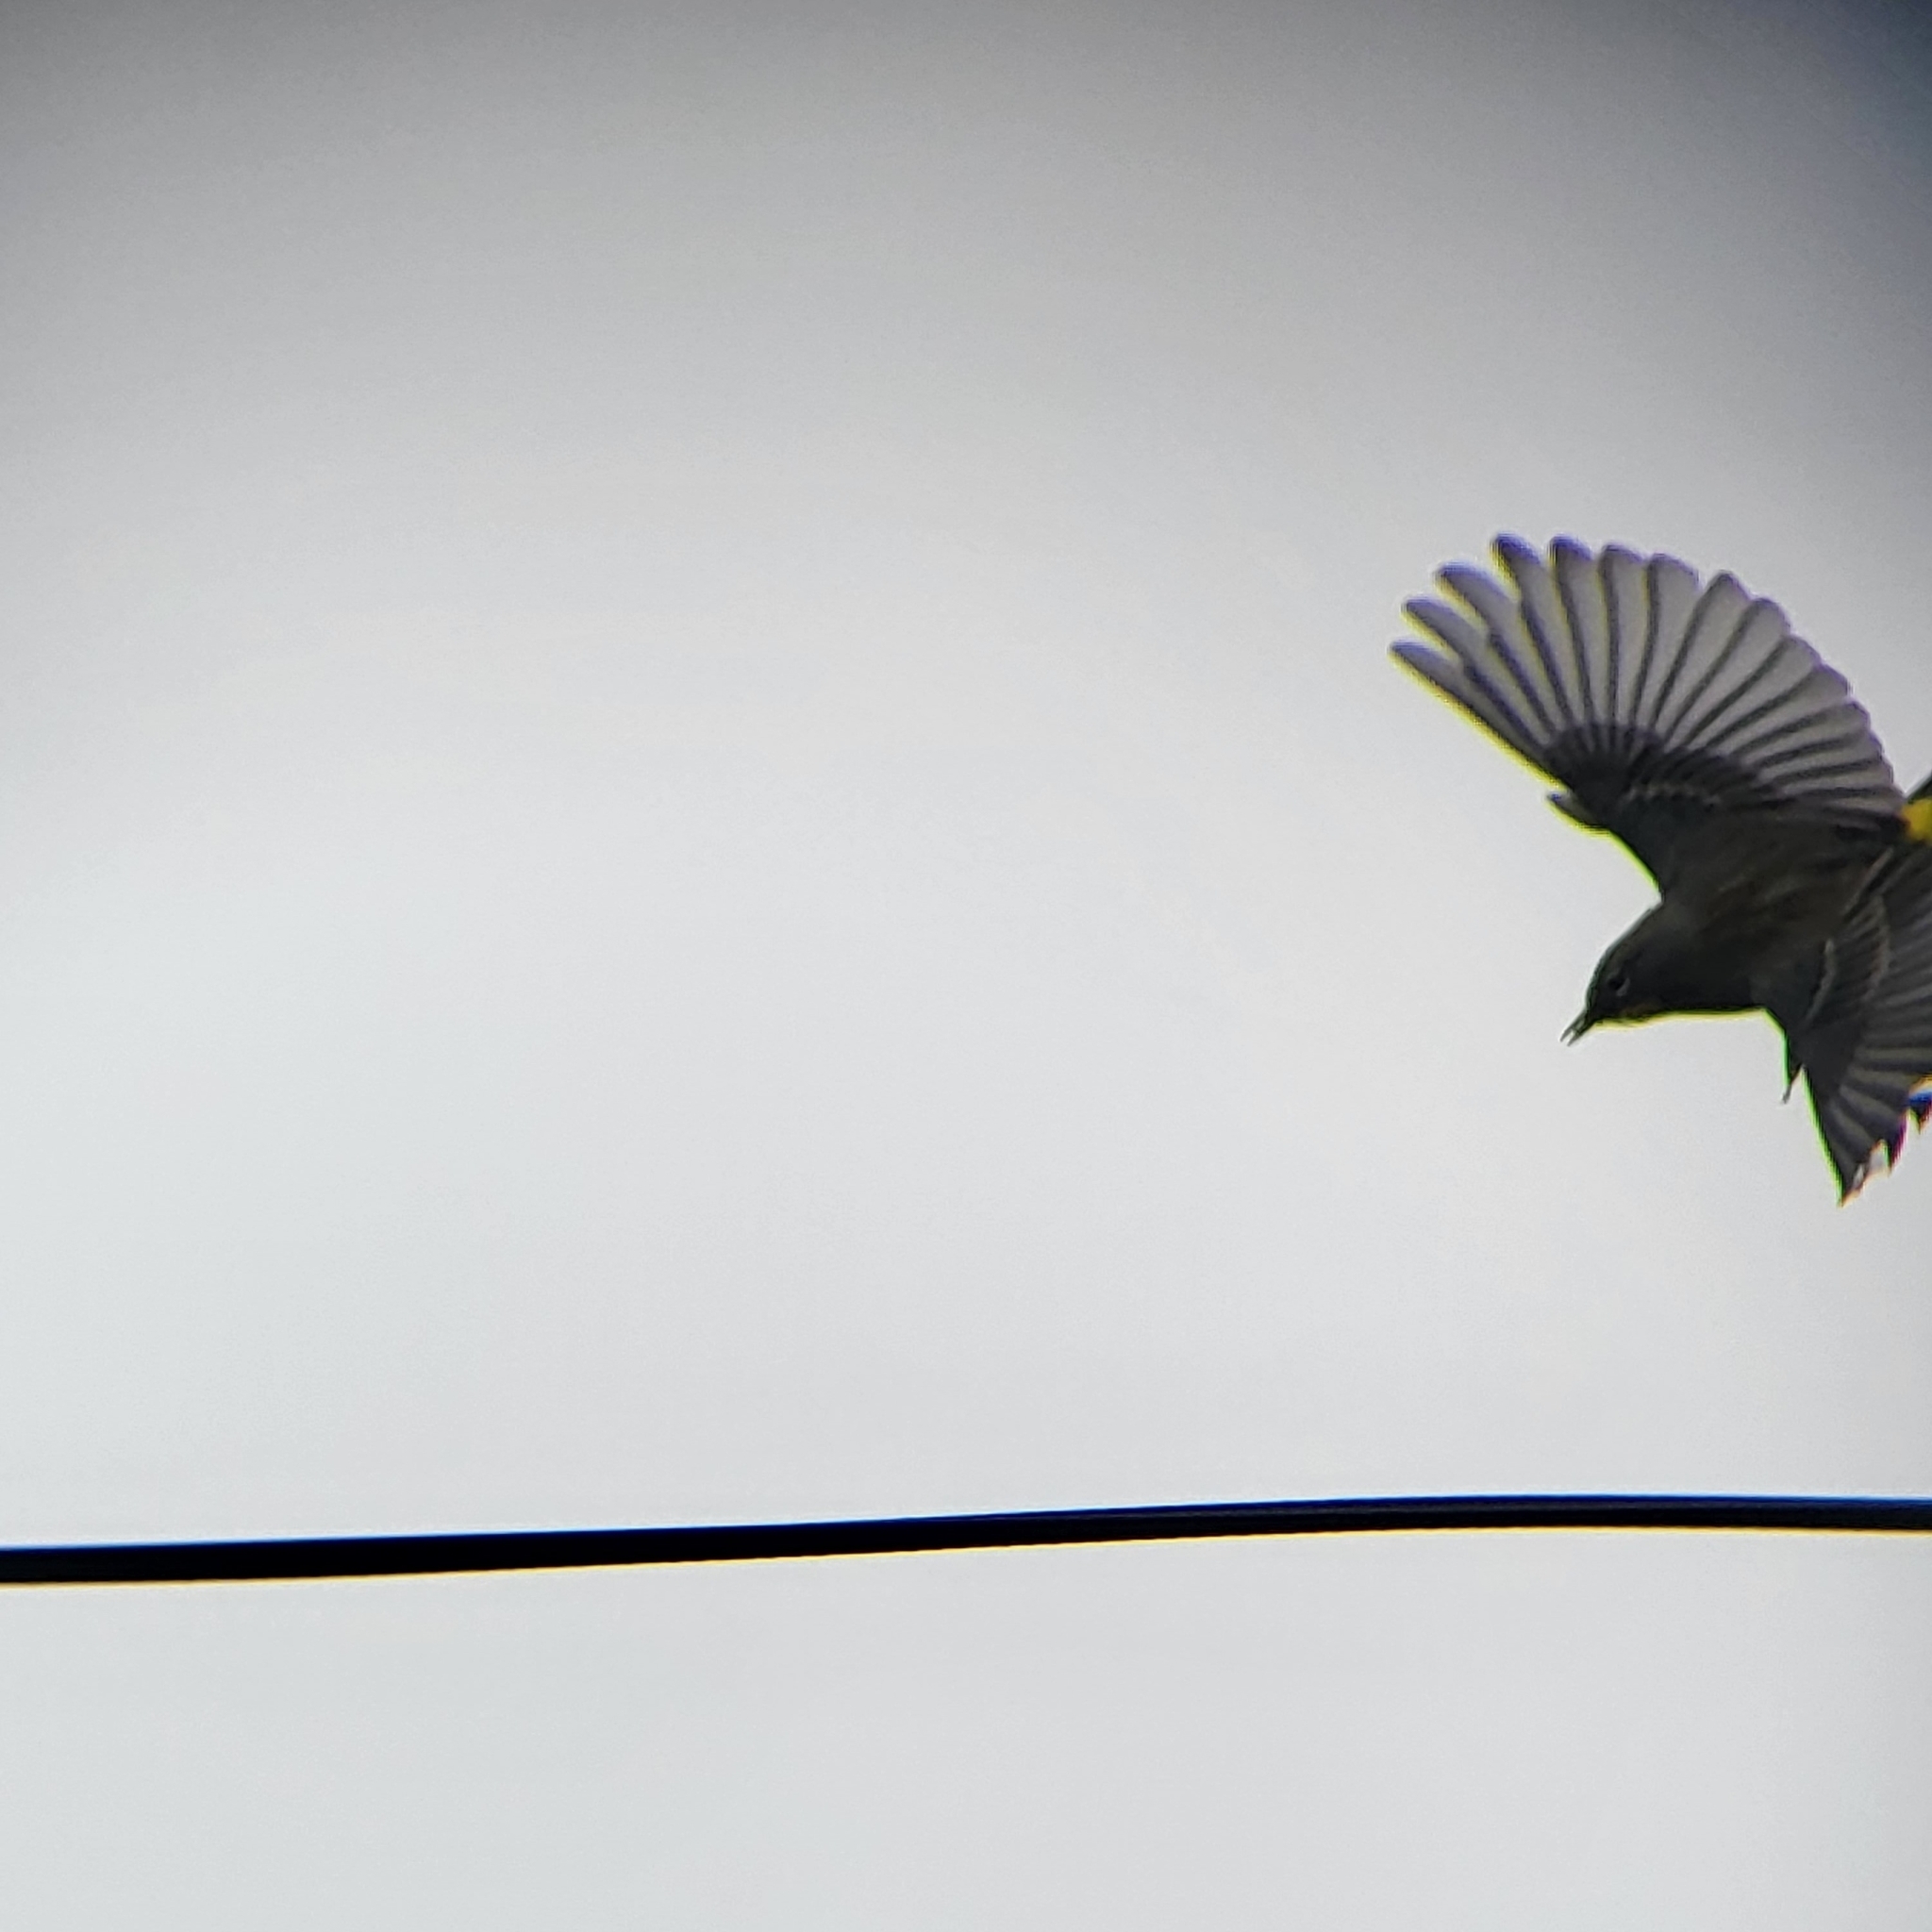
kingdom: Animalia
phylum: Chordata
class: Aves
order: Passeriformes
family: Parulidae
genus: Setophaga
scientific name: Setophaga coronata
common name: Myrtle warbler
